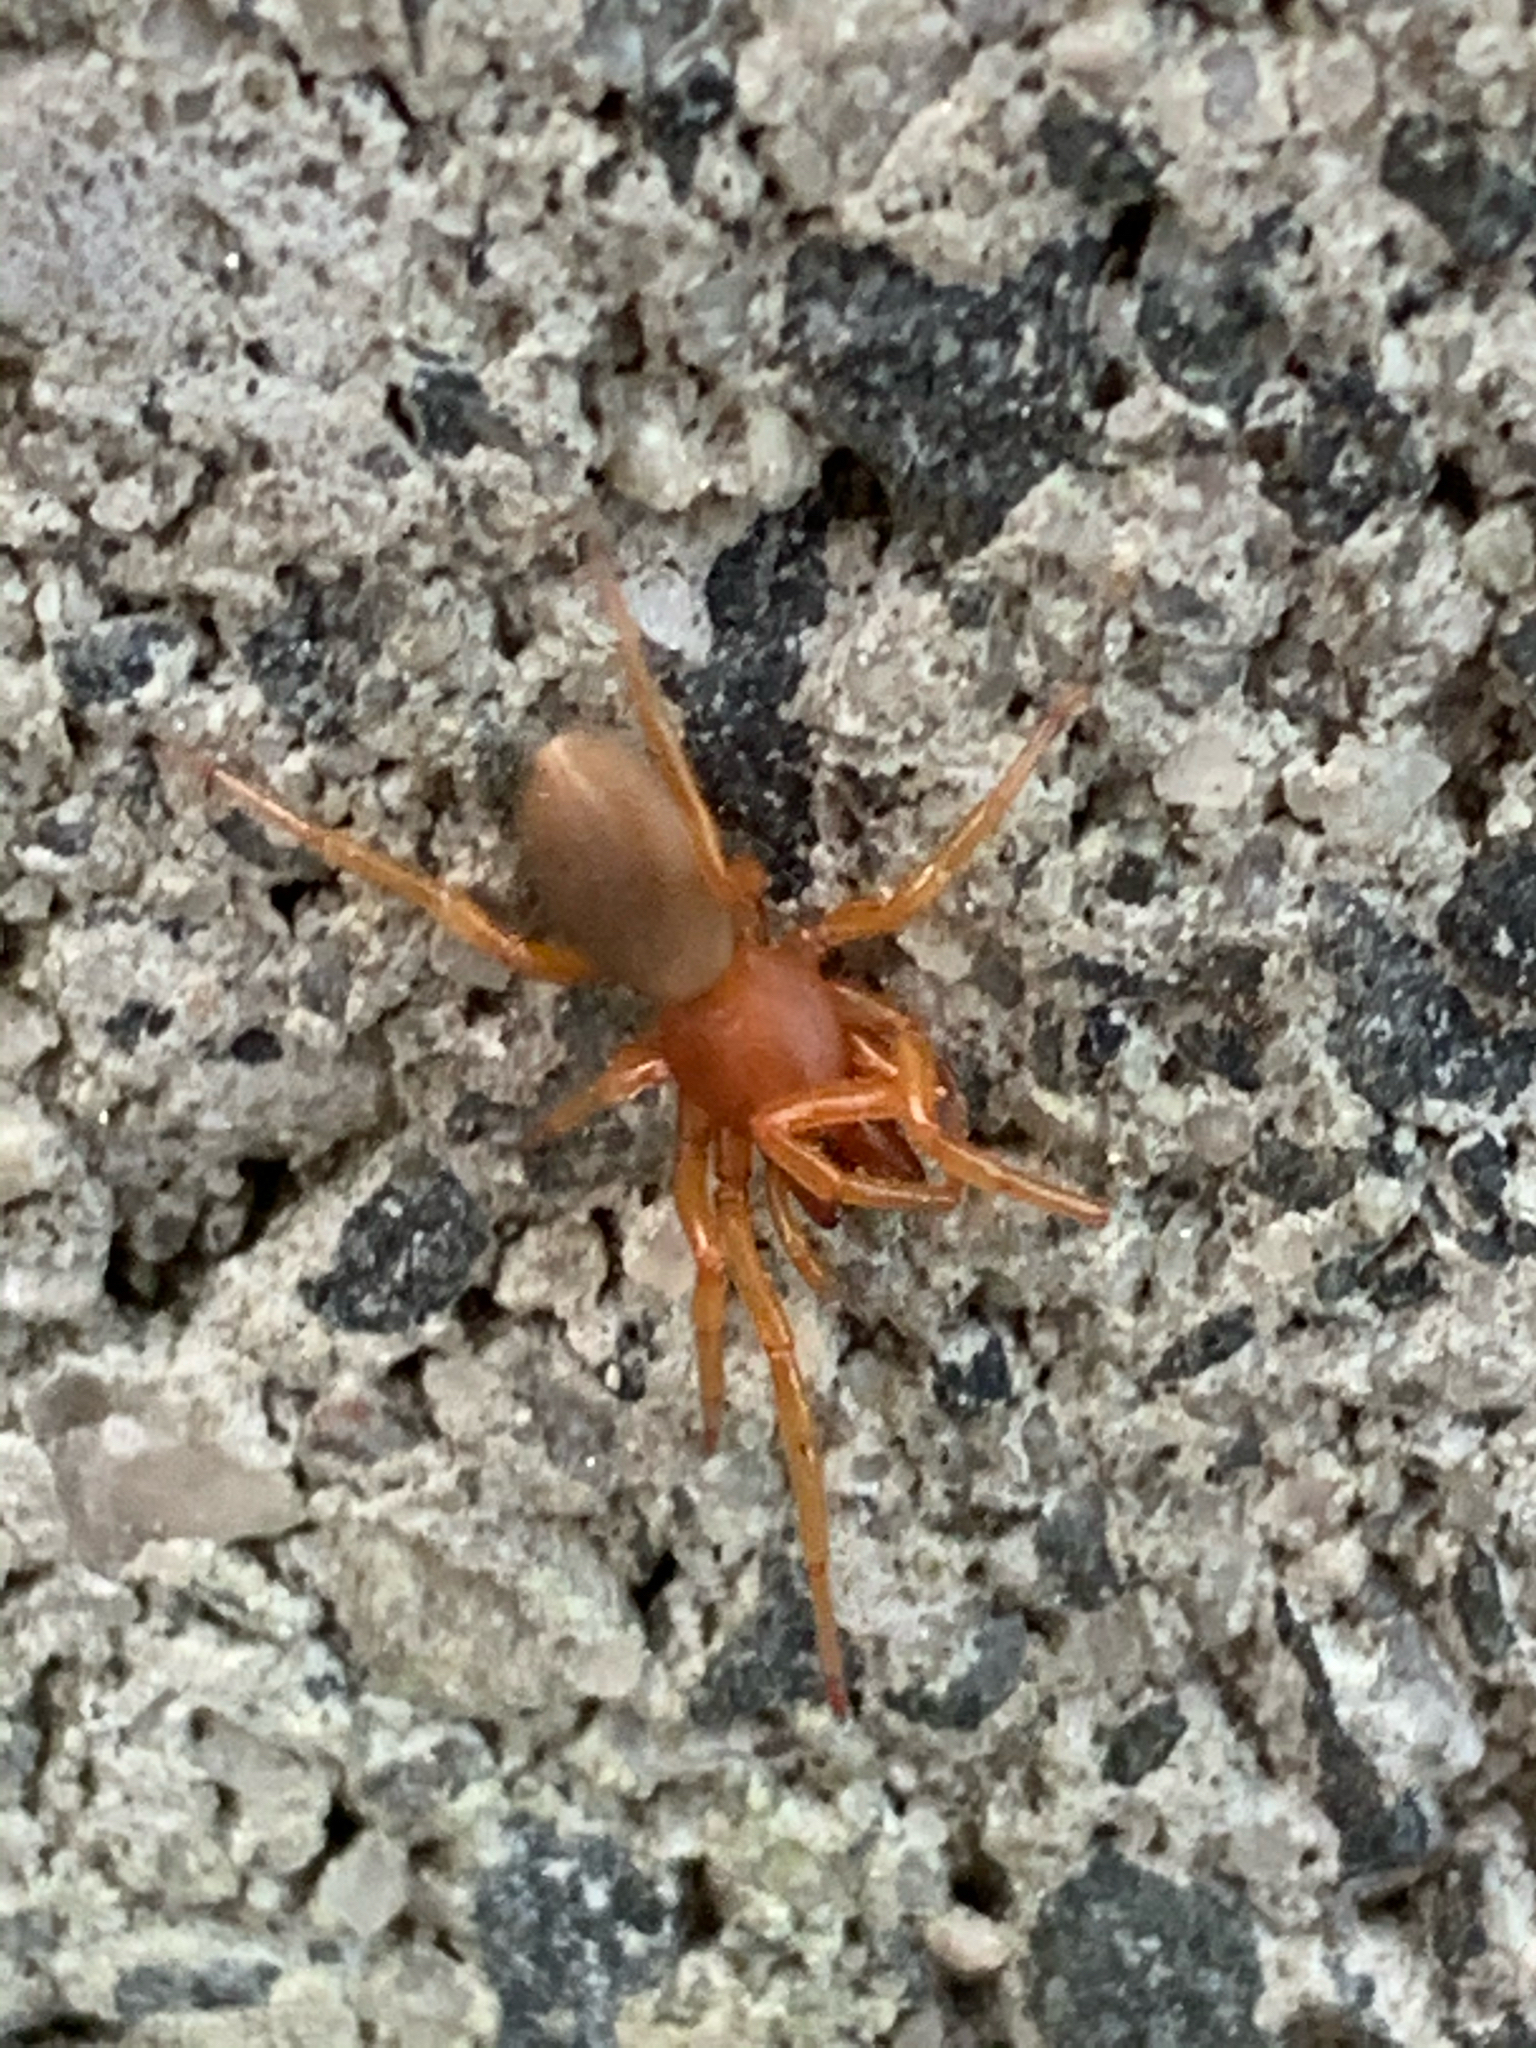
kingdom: Animalia
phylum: Arthropoda
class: Arachnida
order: Araneae
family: Dysderidae
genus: Dysdera
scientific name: Dysdera crocata
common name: Woodlouse spider
